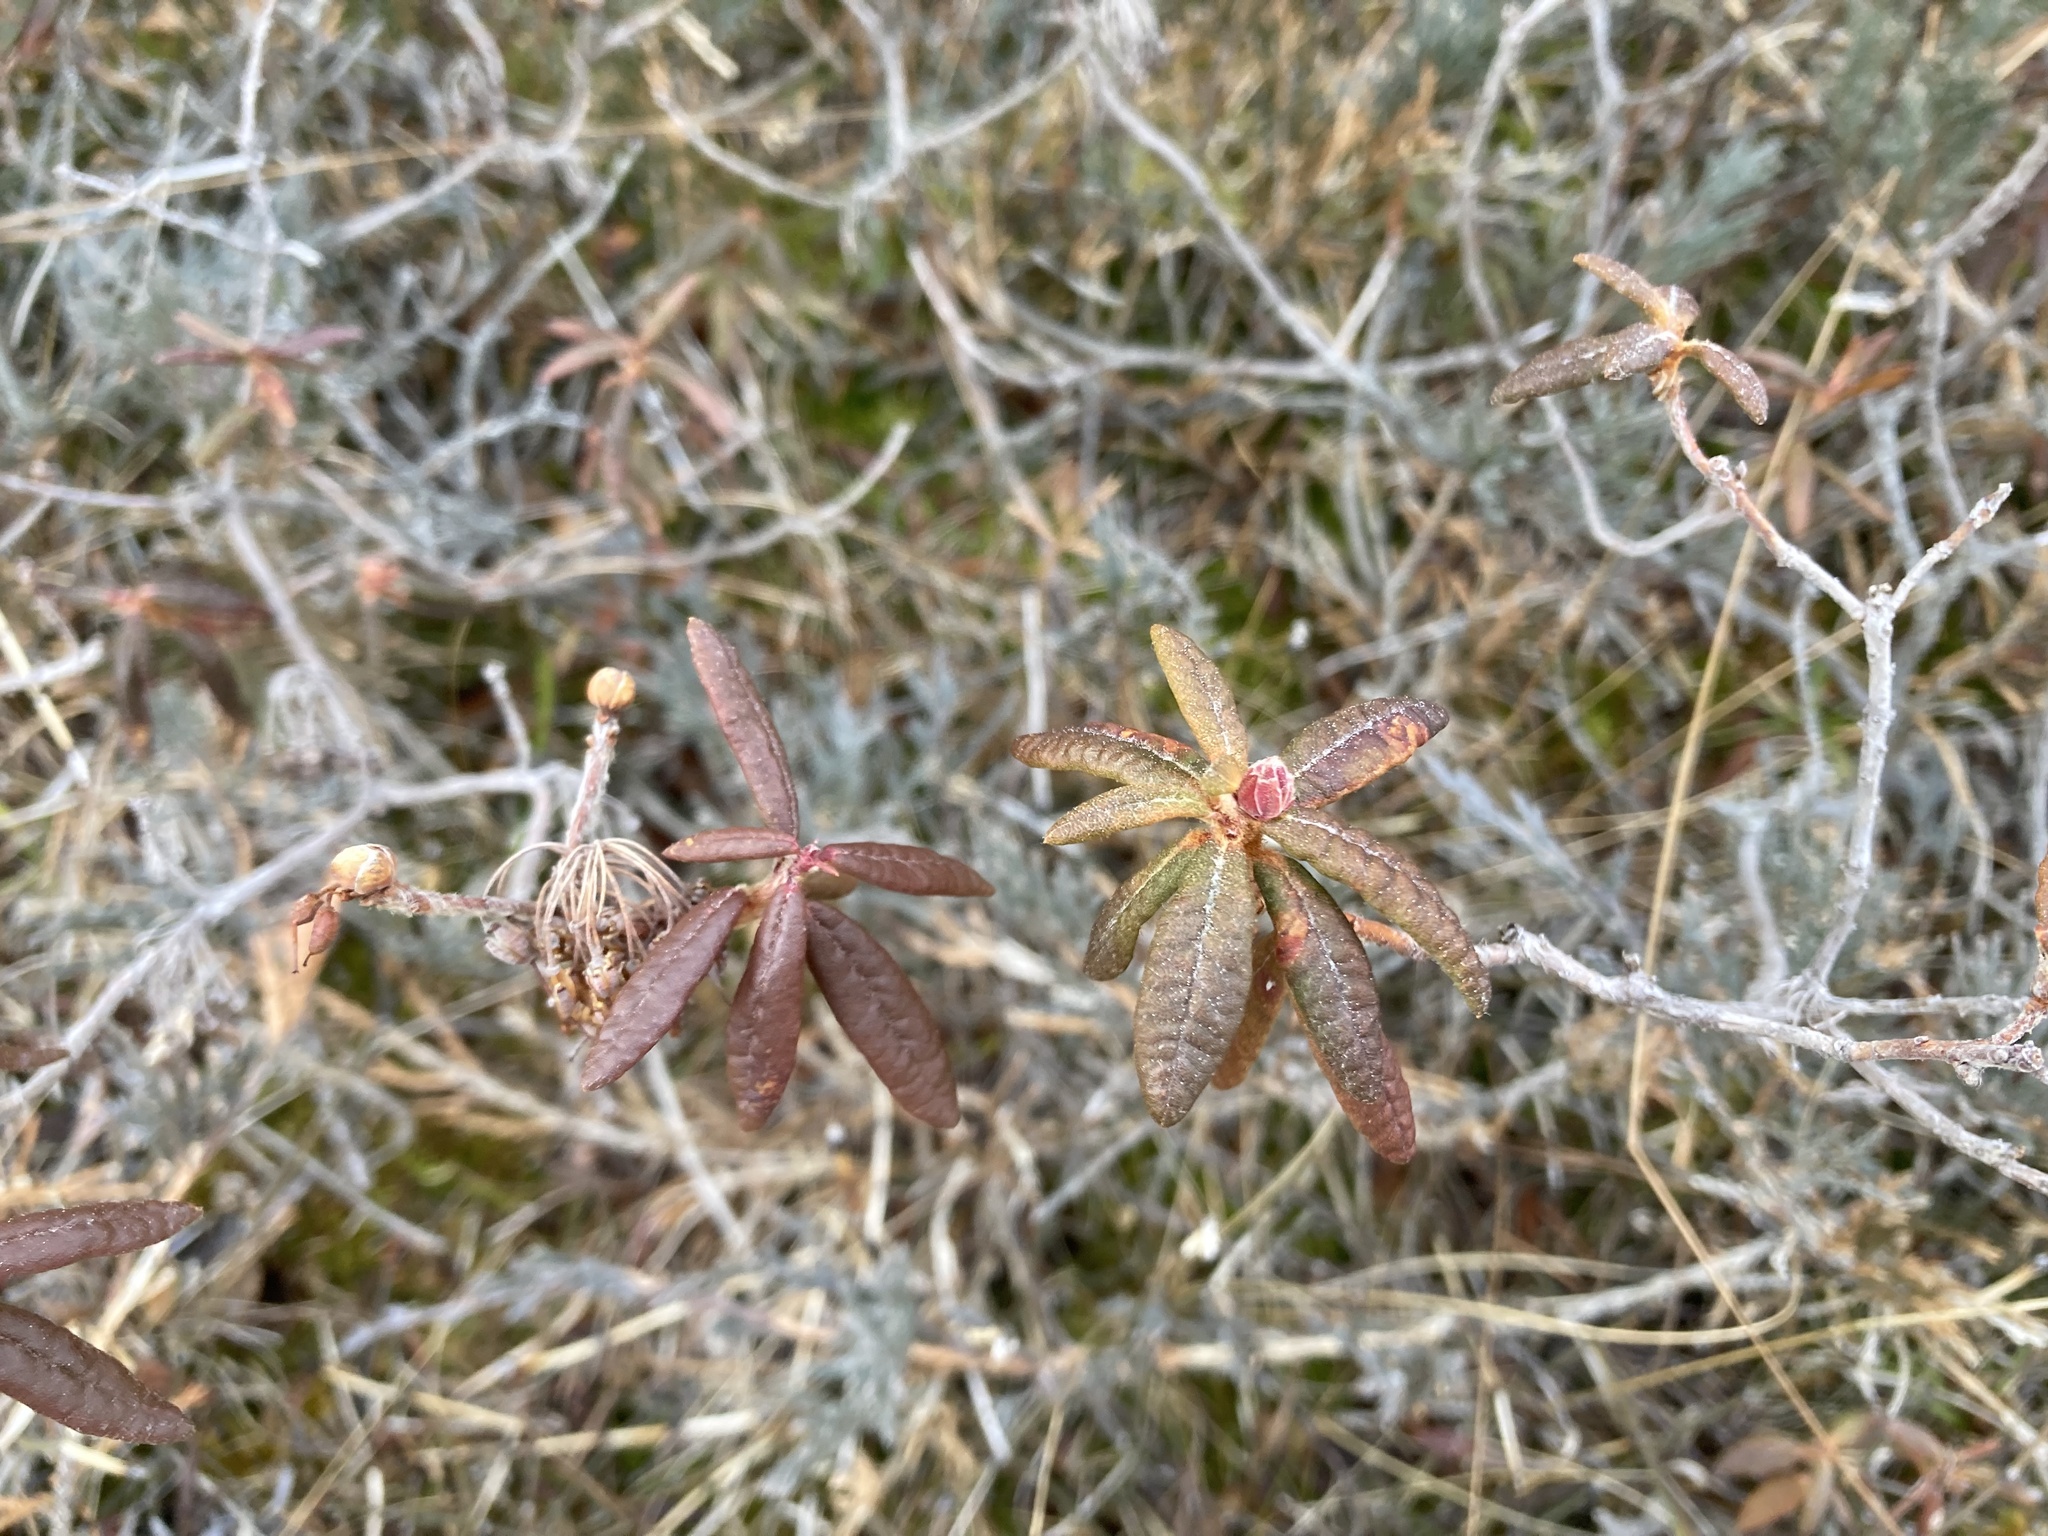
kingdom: Plantae
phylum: Tracheophyta
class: Magnoliopsida
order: Ericales
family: Ericaceae
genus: Rhododendron
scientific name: Rhododendron groenlandicum
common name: Bog labrador tea
